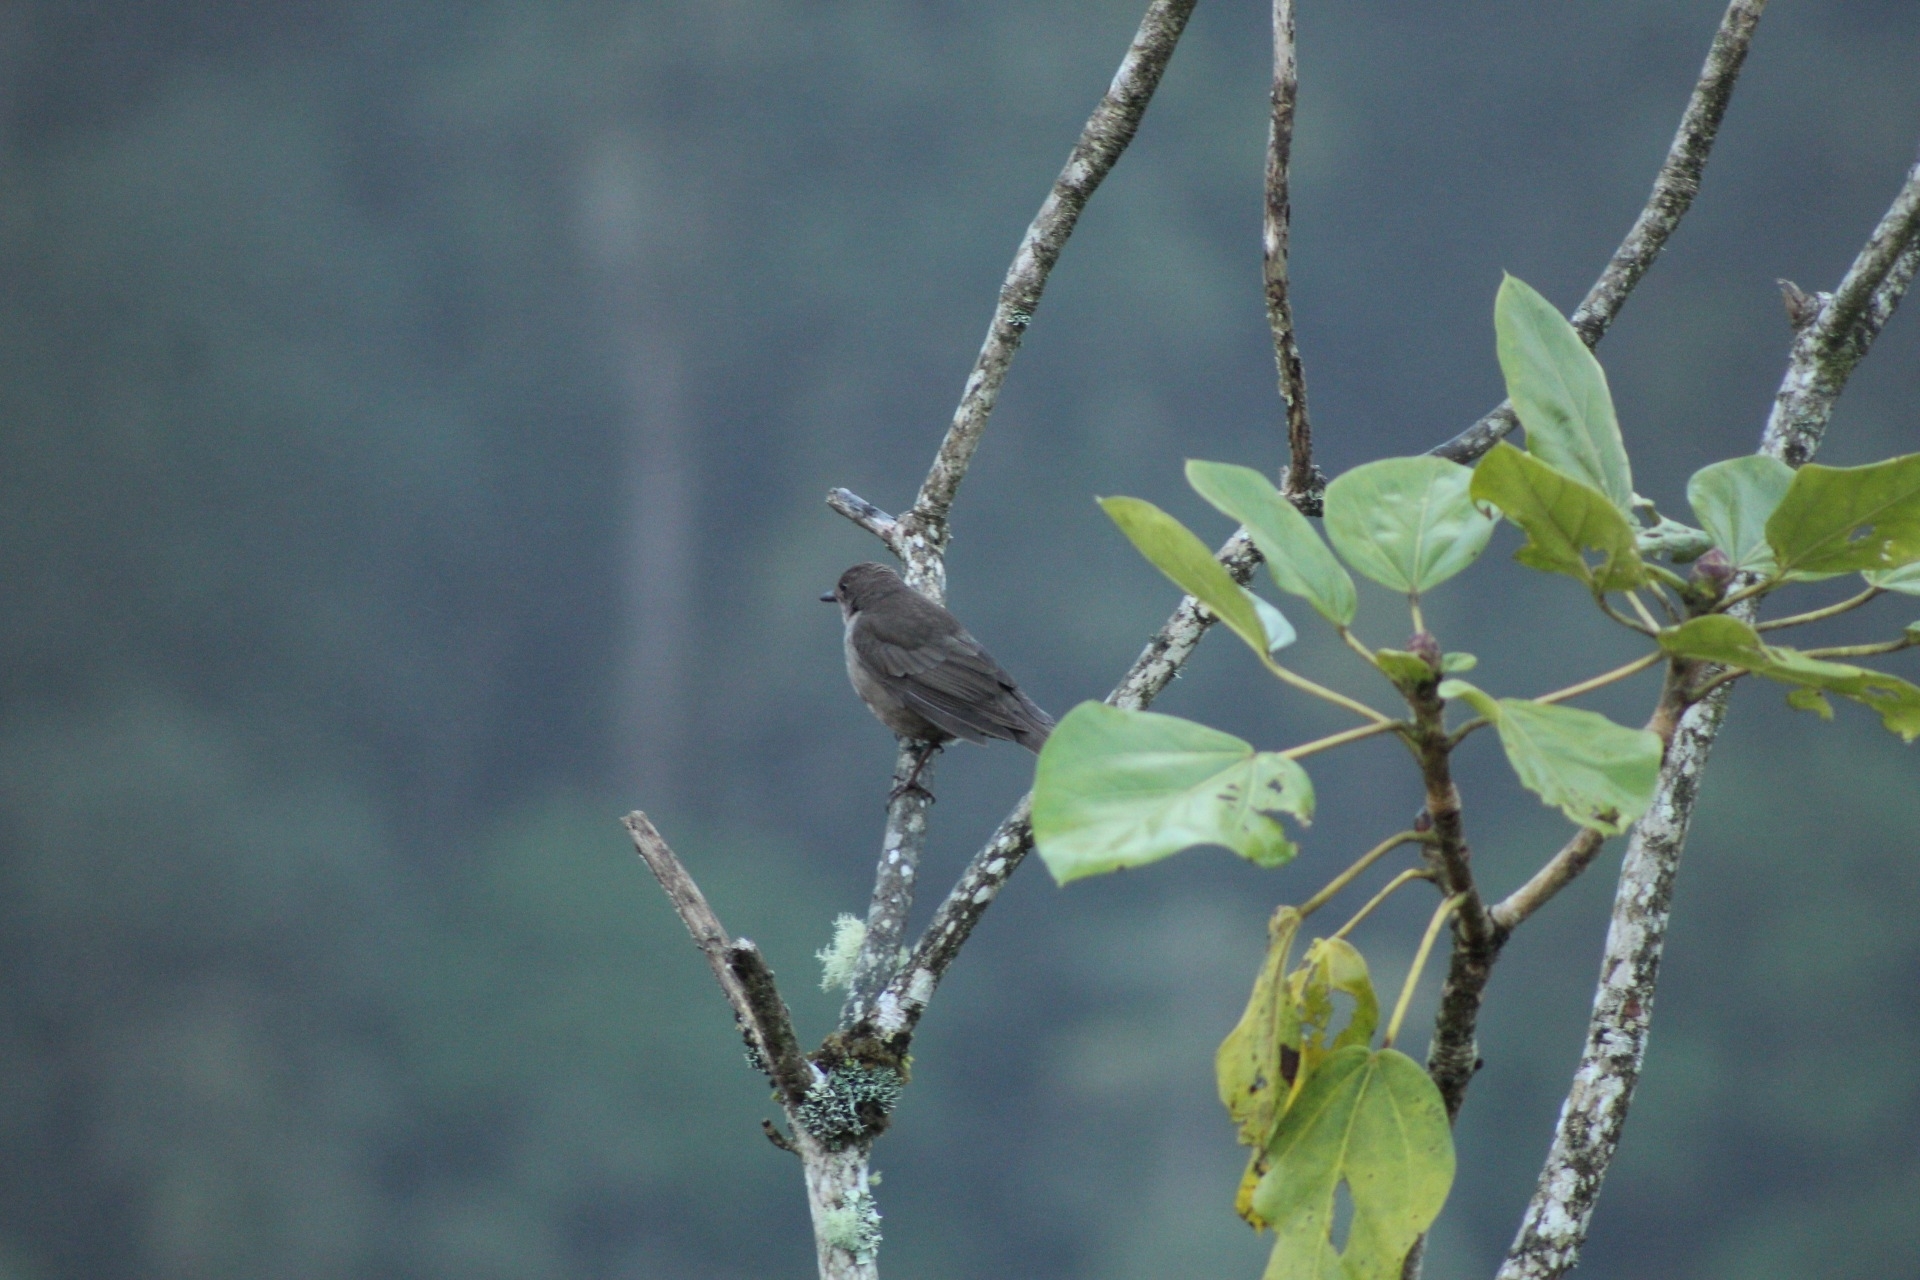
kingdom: Animalia
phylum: Chordata
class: Aves
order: Passeriformes
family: Turdidae
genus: Turdus
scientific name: Turdus plebejus
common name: Mountain thrush
